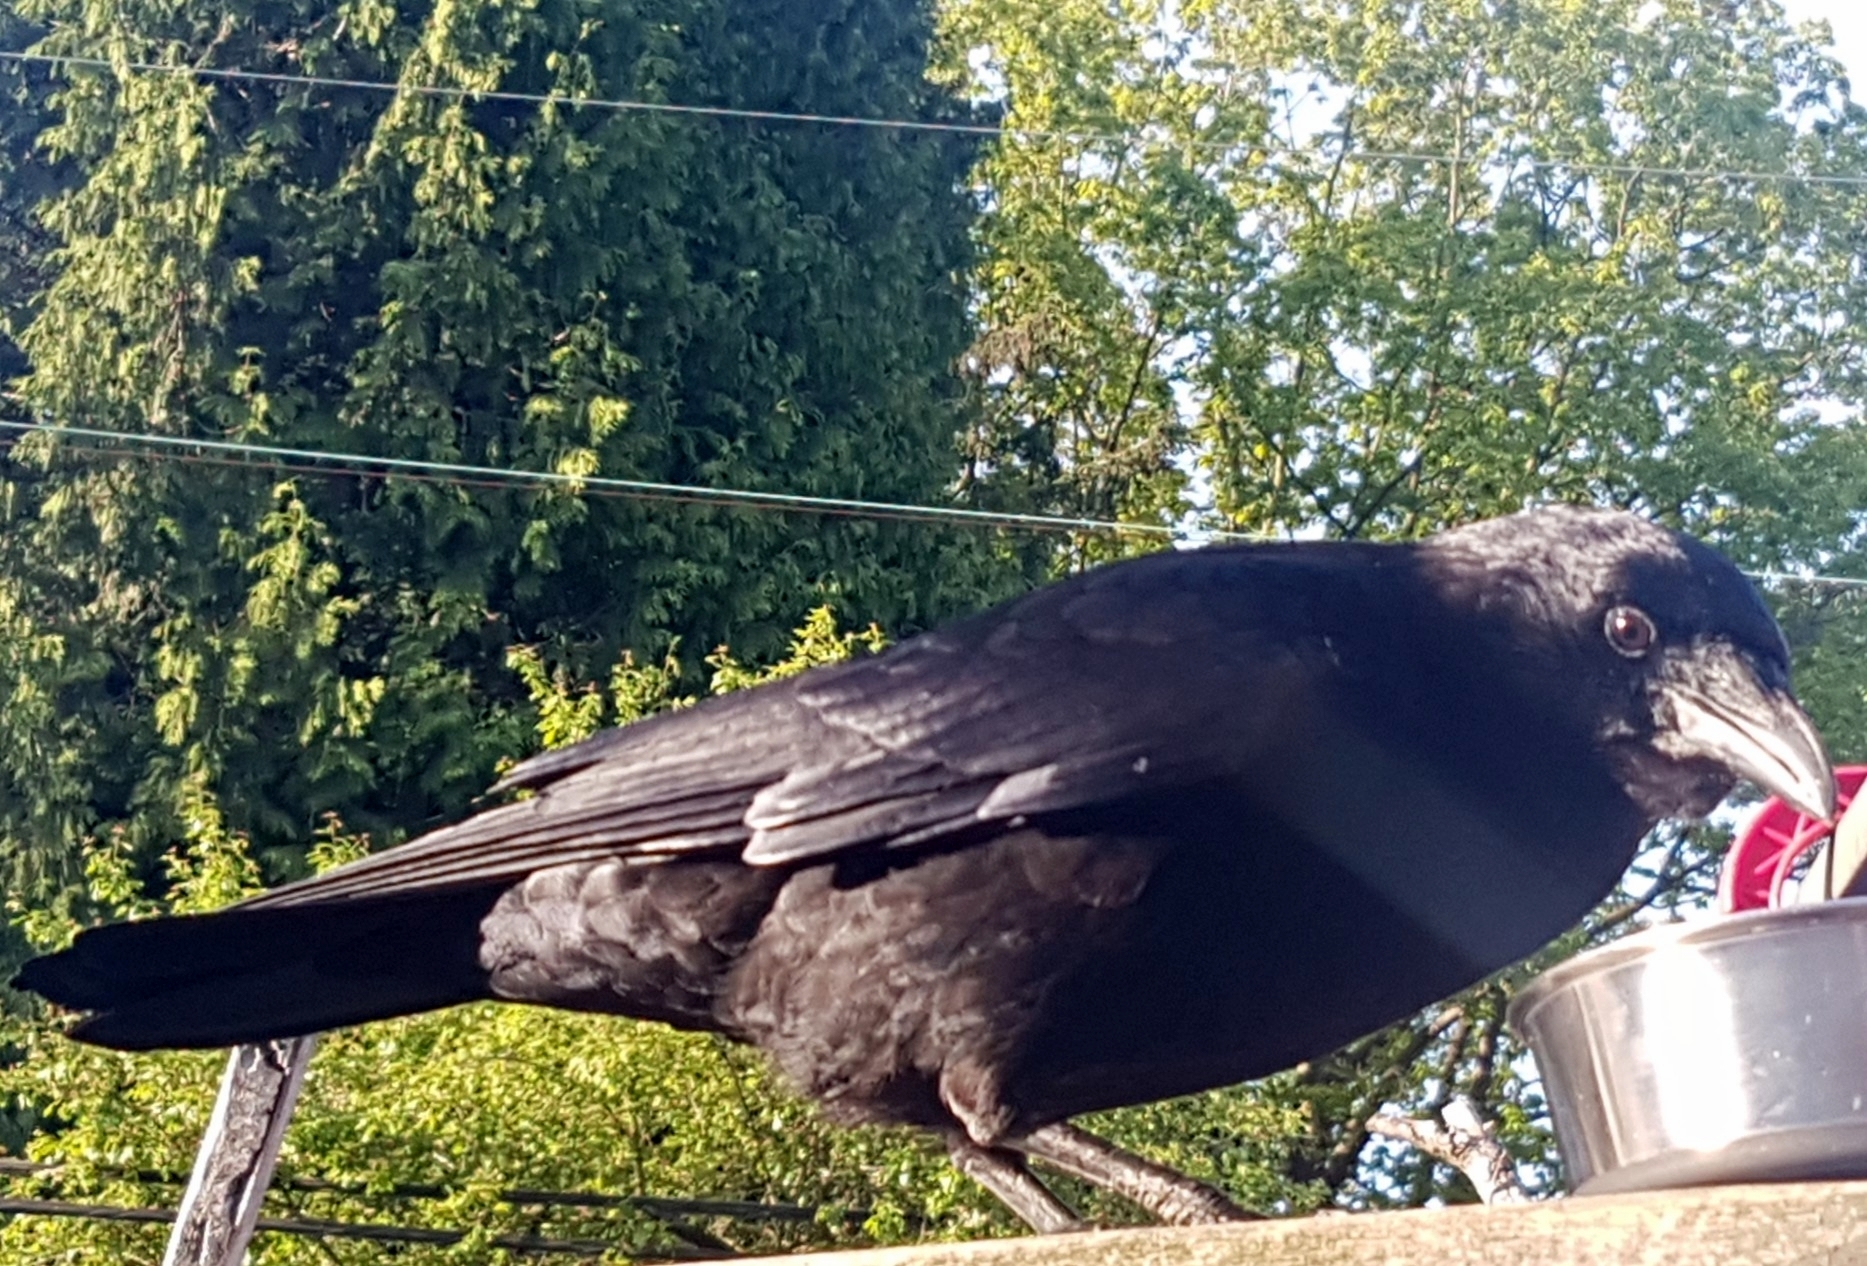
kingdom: Animalia
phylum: Chordata
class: Aves
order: Passeriformes
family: Corvidae
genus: Corvus
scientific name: Corvus brachyrhynchos
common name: American crow
